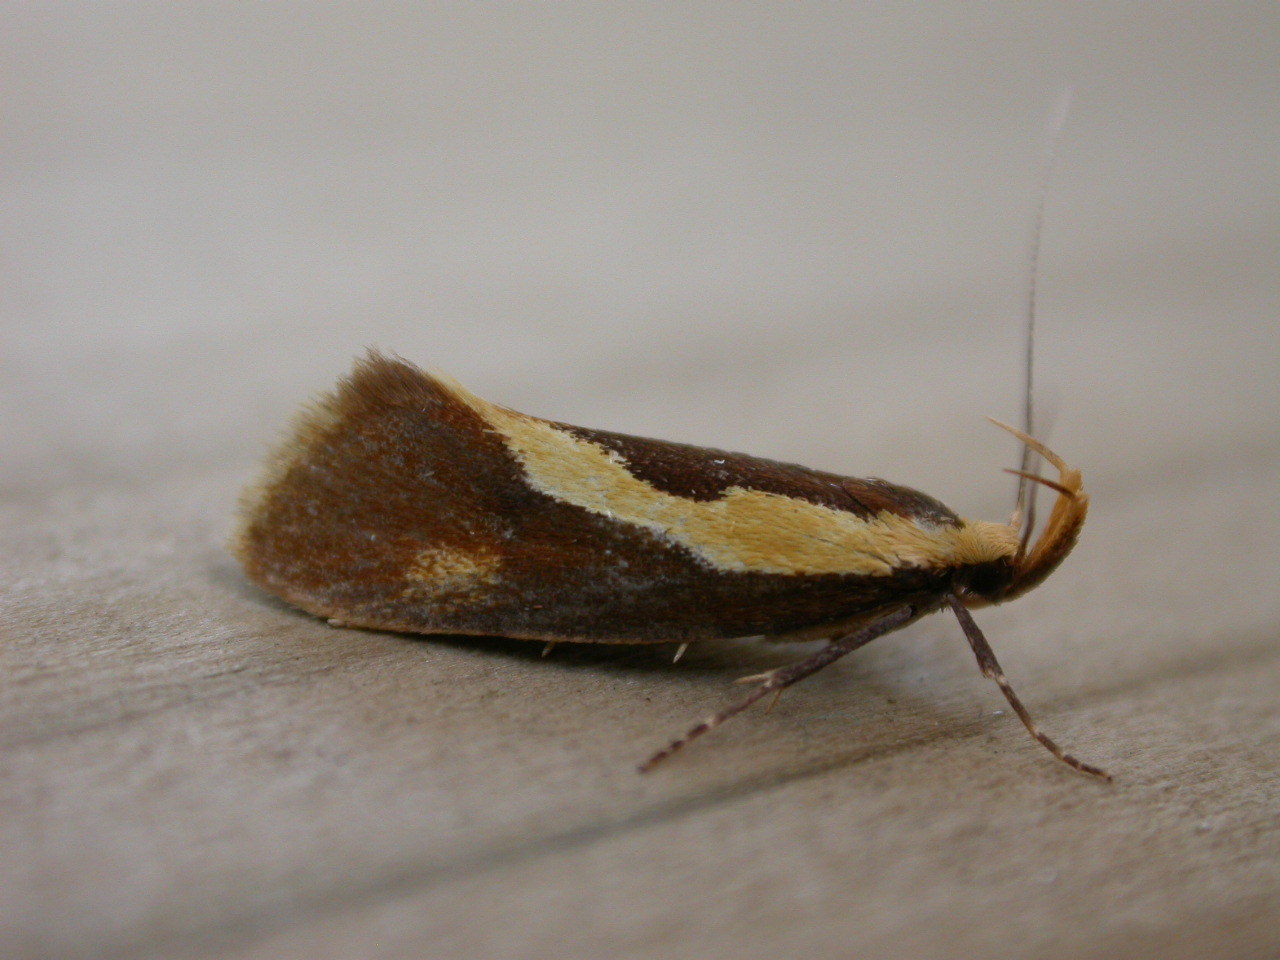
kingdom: Animalia
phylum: Arthropoda
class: Insecta
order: Lepidoptera
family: Oecophoridae
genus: Harpella
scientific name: Harpella forficella
